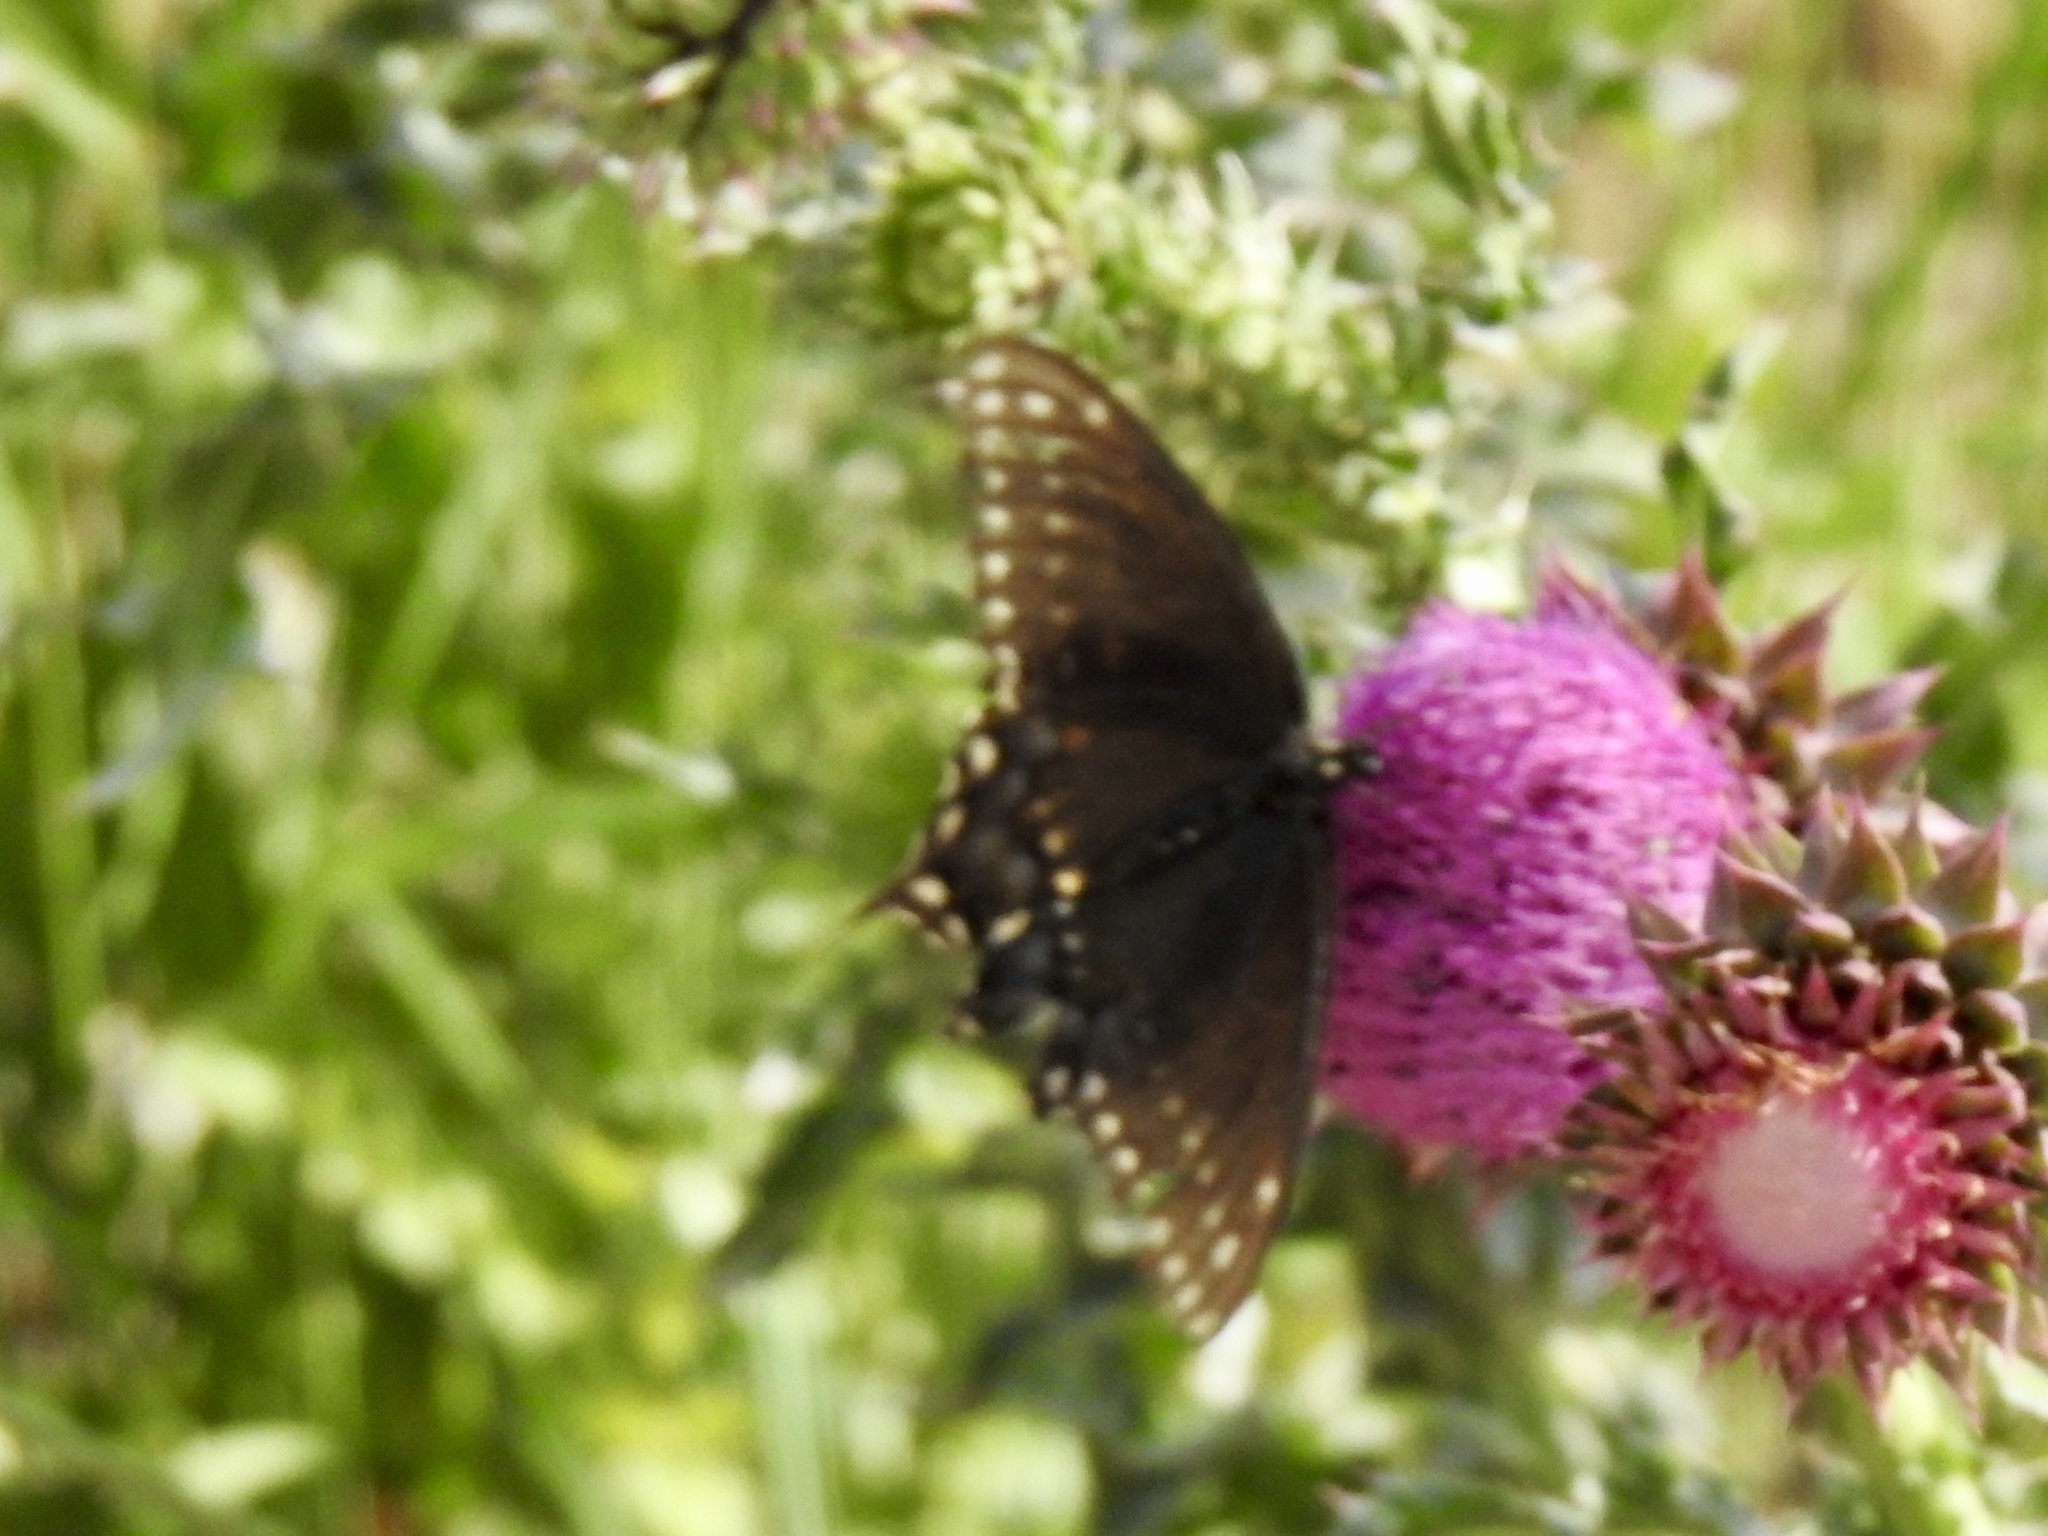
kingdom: Animalia
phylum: Arthropoda
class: Insecta
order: Lepidoptera
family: Papilionidae
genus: Papilio
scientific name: Papilio polyxenes
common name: Black swallowtail
